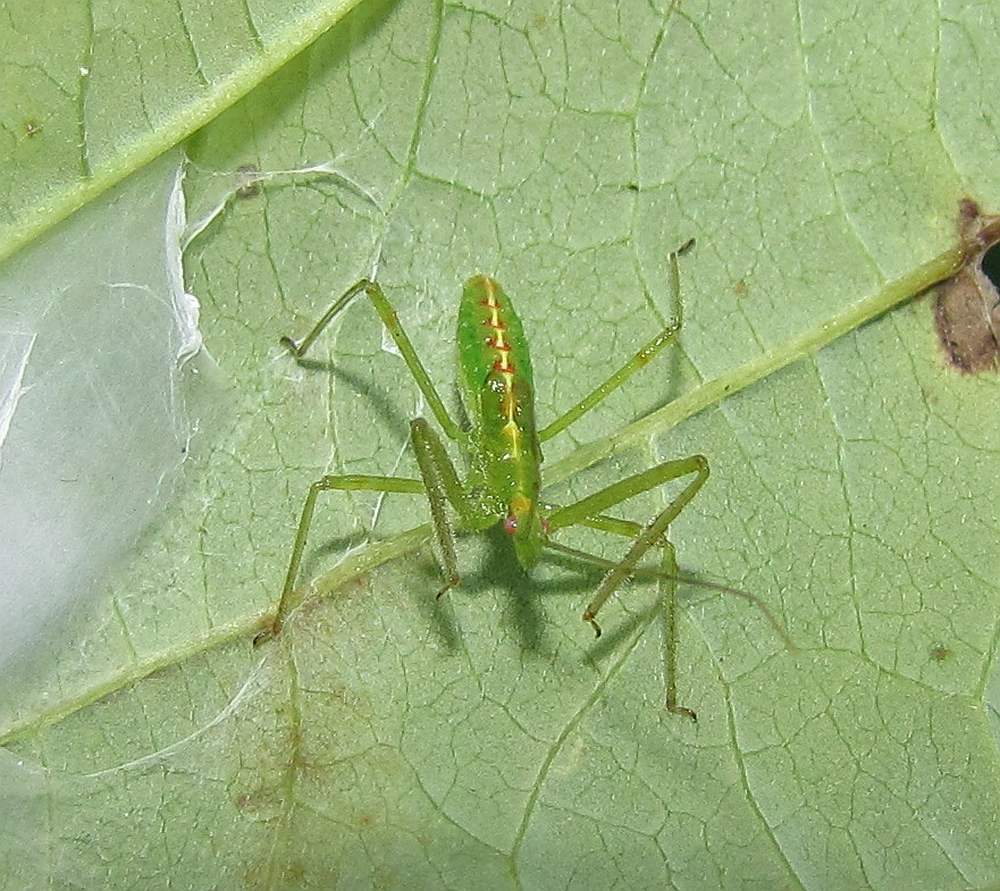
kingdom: Animalia
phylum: Arthropoda
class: Insecta
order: Hemiptera
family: Reduviidae
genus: Zelus
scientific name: Zelus luridus
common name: Pale green assassin bug
